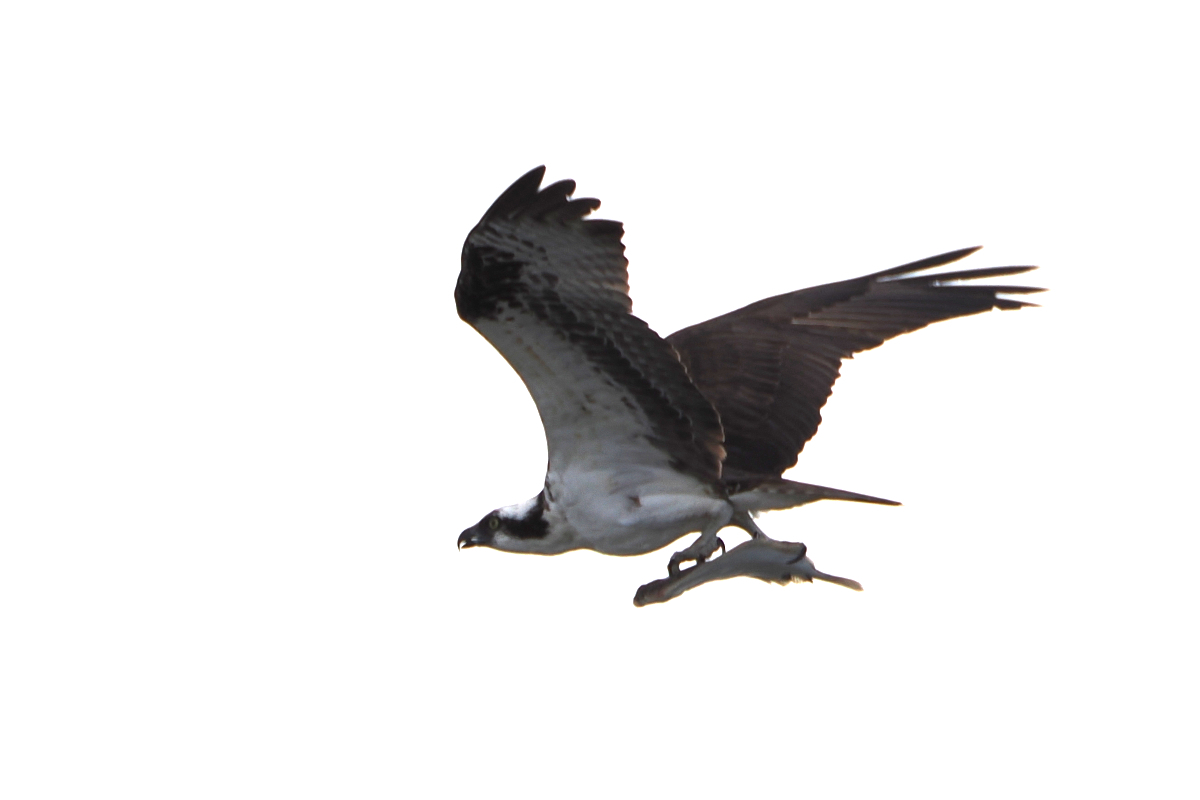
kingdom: Animalia
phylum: Chordata
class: Aves
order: Accipitriformes
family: Pandionidae
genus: Pandion
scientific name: Pandion haliaetus
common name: Osprey
